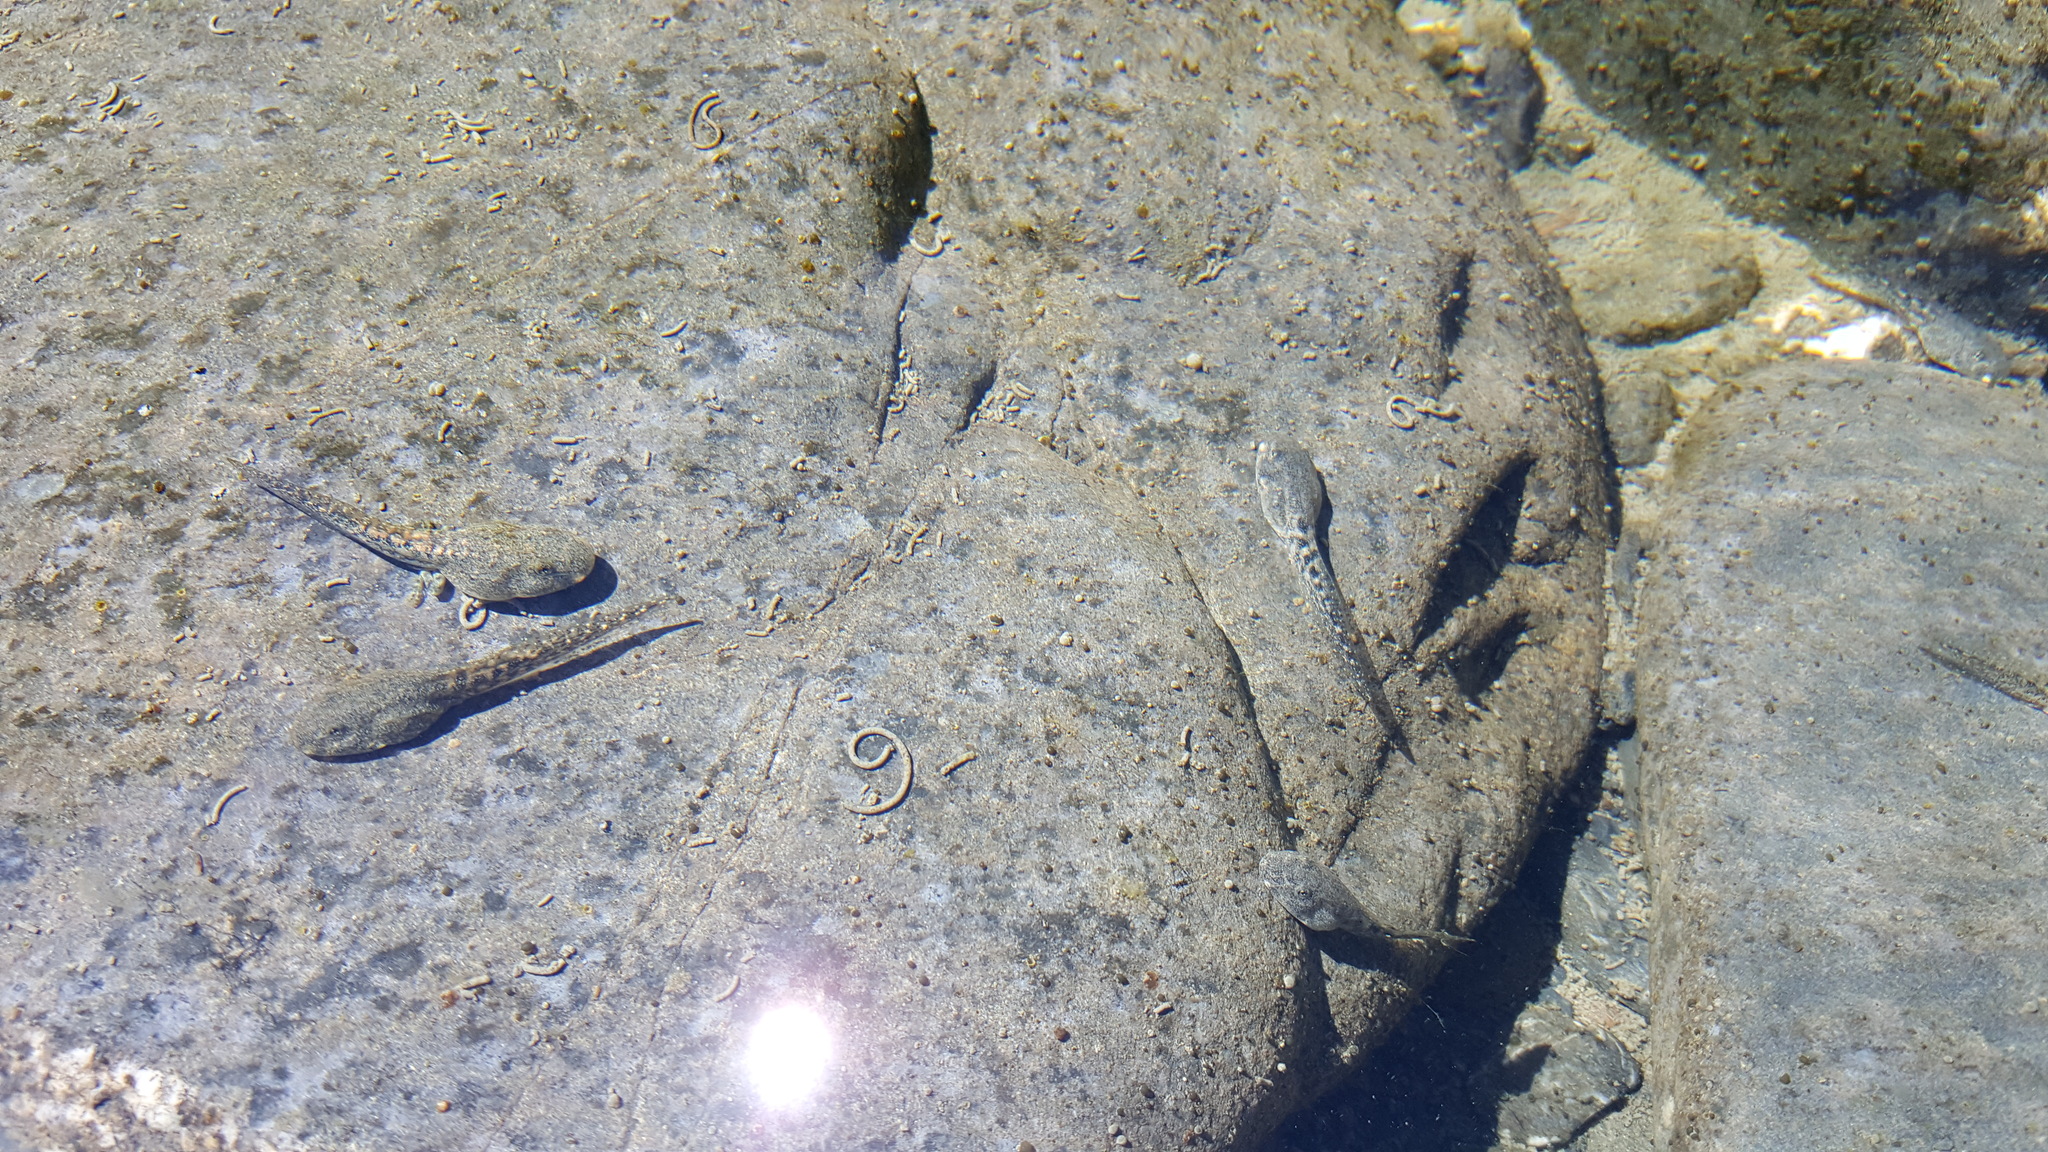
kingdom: Animalia
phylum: Chordata
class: Amphibia
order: Anura
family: Ranidae
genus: Rana
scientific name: Rana boylii
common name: Foothill yellow-legged frog
